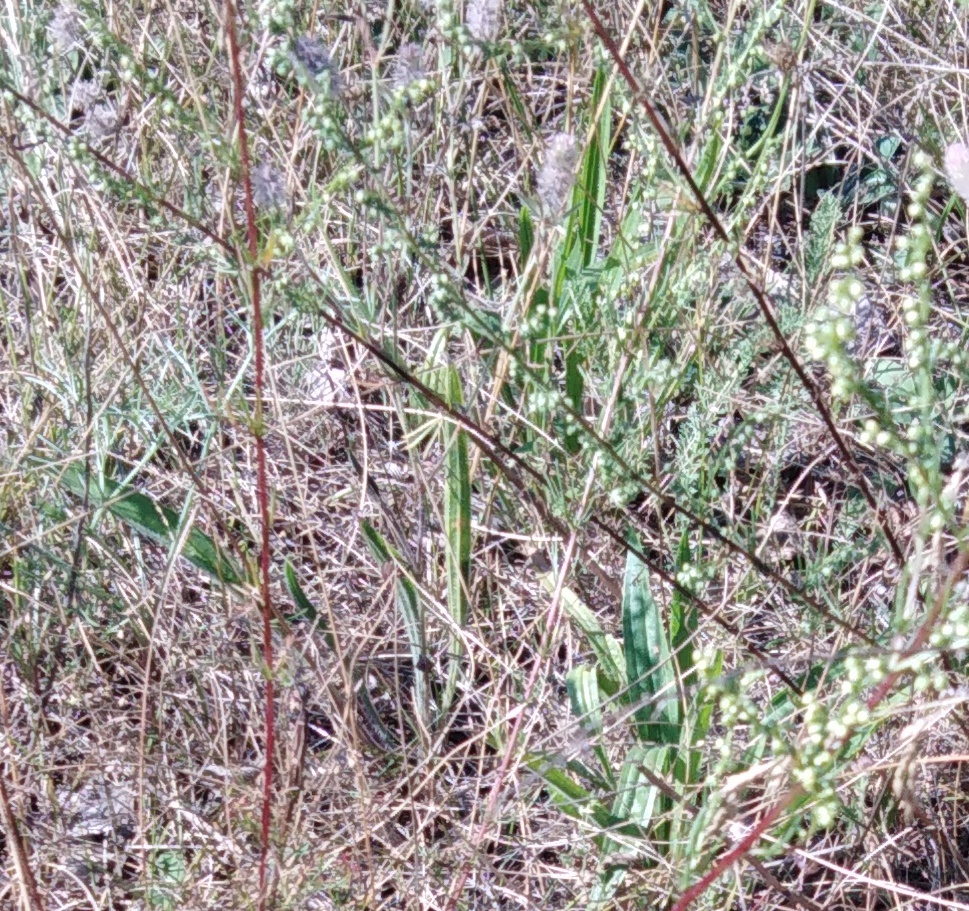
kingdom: Plantae
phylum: Tracheophyta
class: Magnoliopsida
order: Fabales
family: Fabaceae
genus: Lathyrus
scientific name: Lathyrus sylvestris
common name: Flat pea
